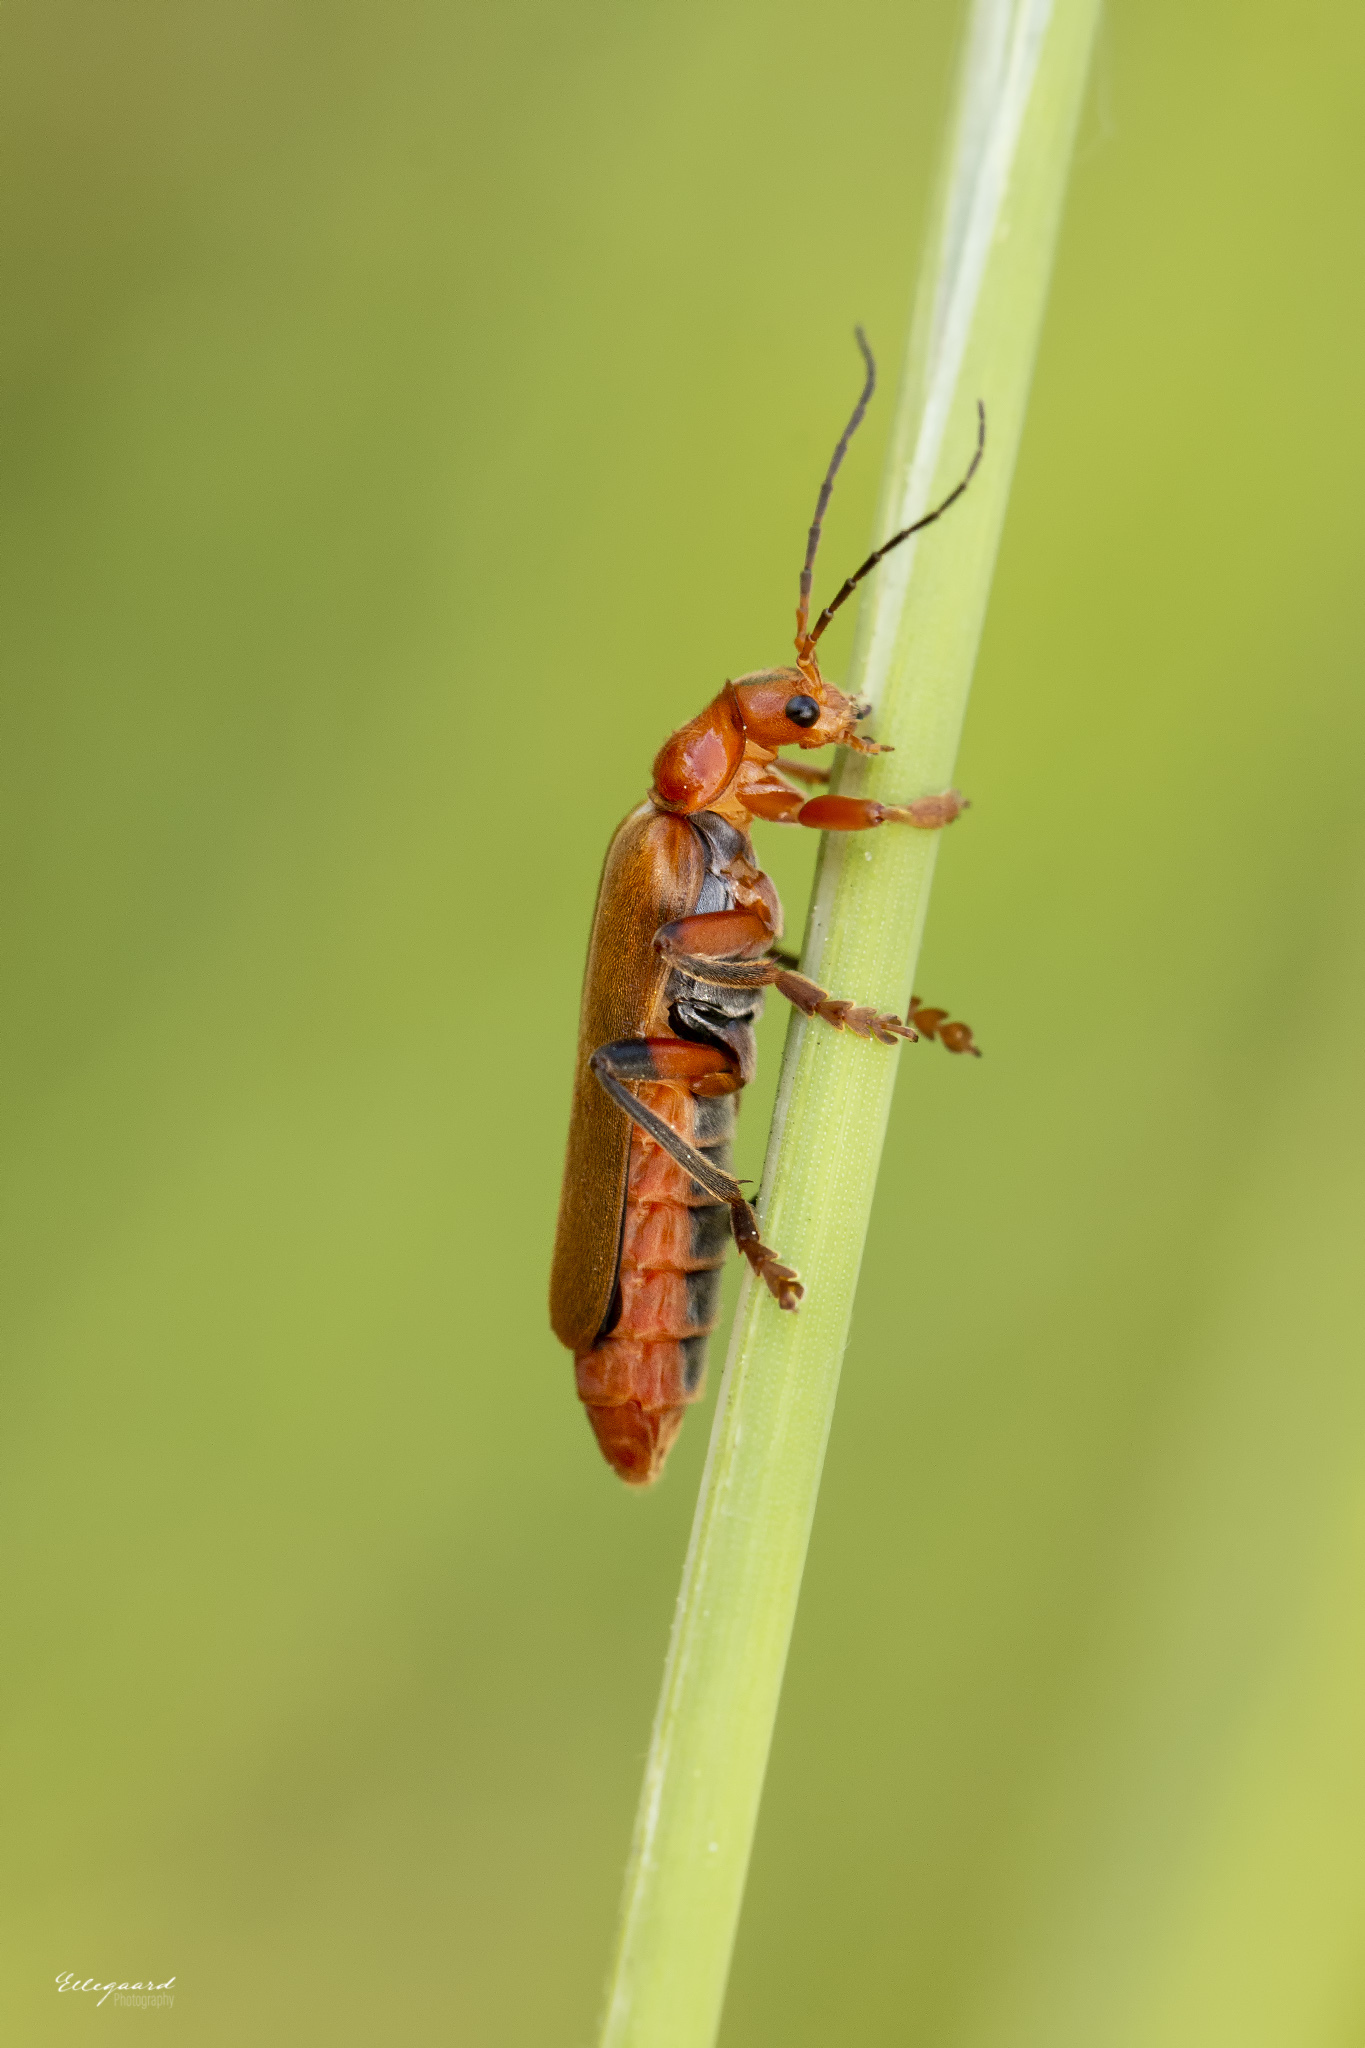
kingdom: Animalia
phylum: Arthropoda
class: Insecta
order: Coleoptera
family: Cantharidae
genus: Cantharis
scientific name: Cantharis livida
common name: Livid soldier beetle
